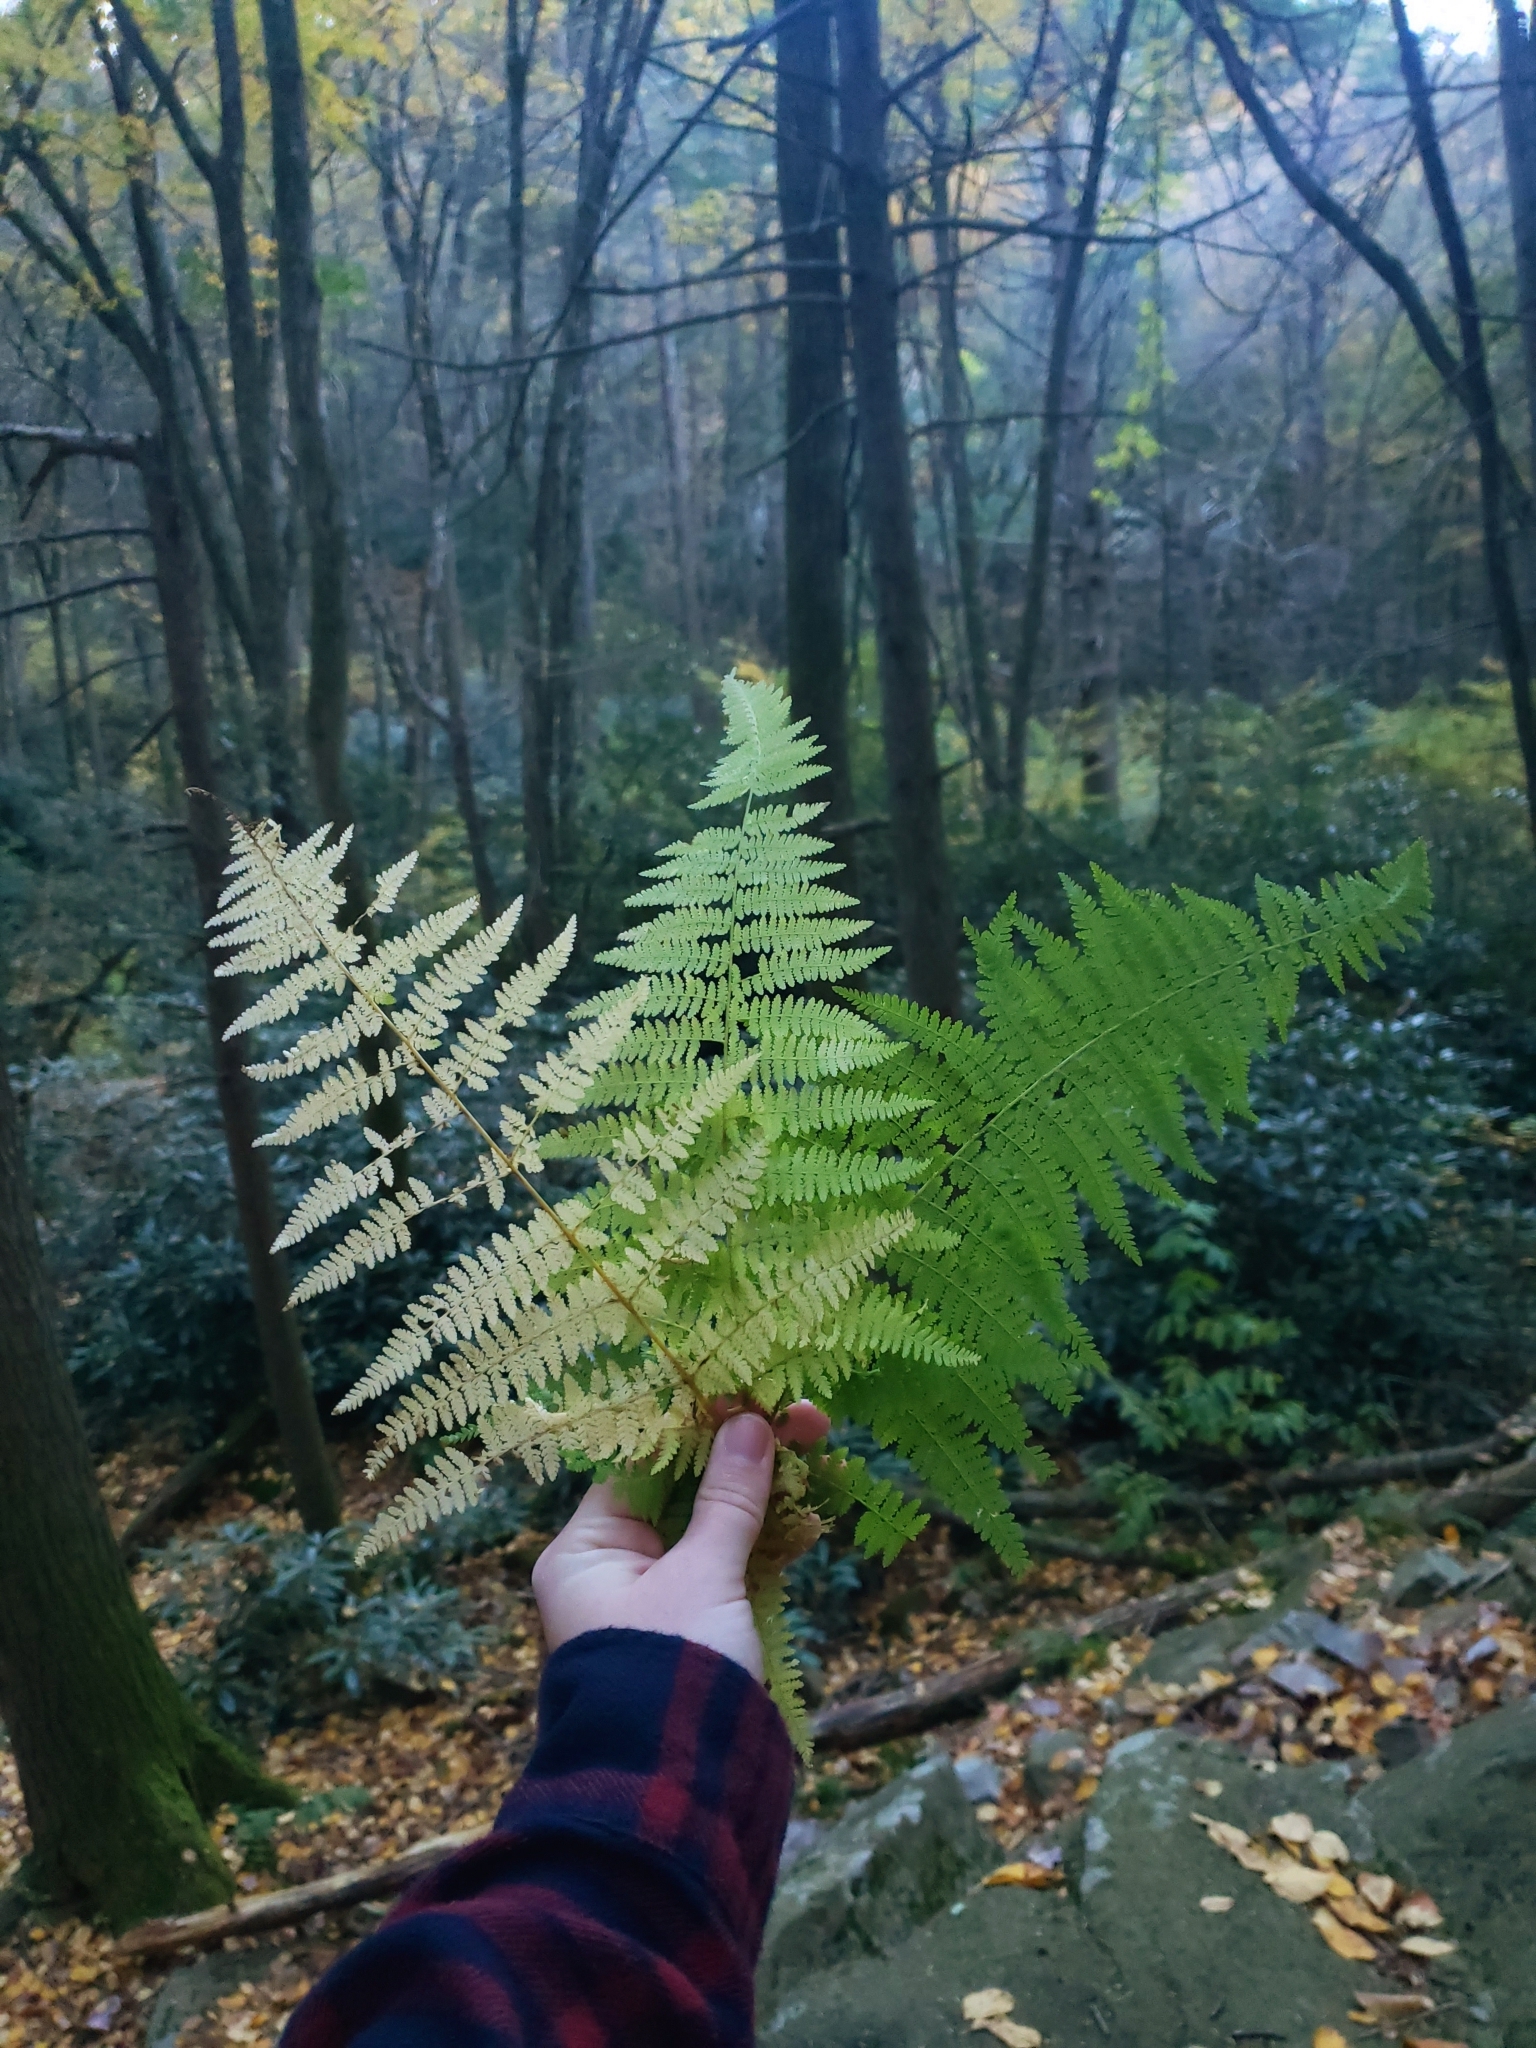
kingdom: Plantae
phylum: Tracheophyta
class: Polypodiopsida
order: Polypodiales
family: Dennstaedtiaceae
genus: Sitobolium
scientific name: Sitobolium punctilobum
